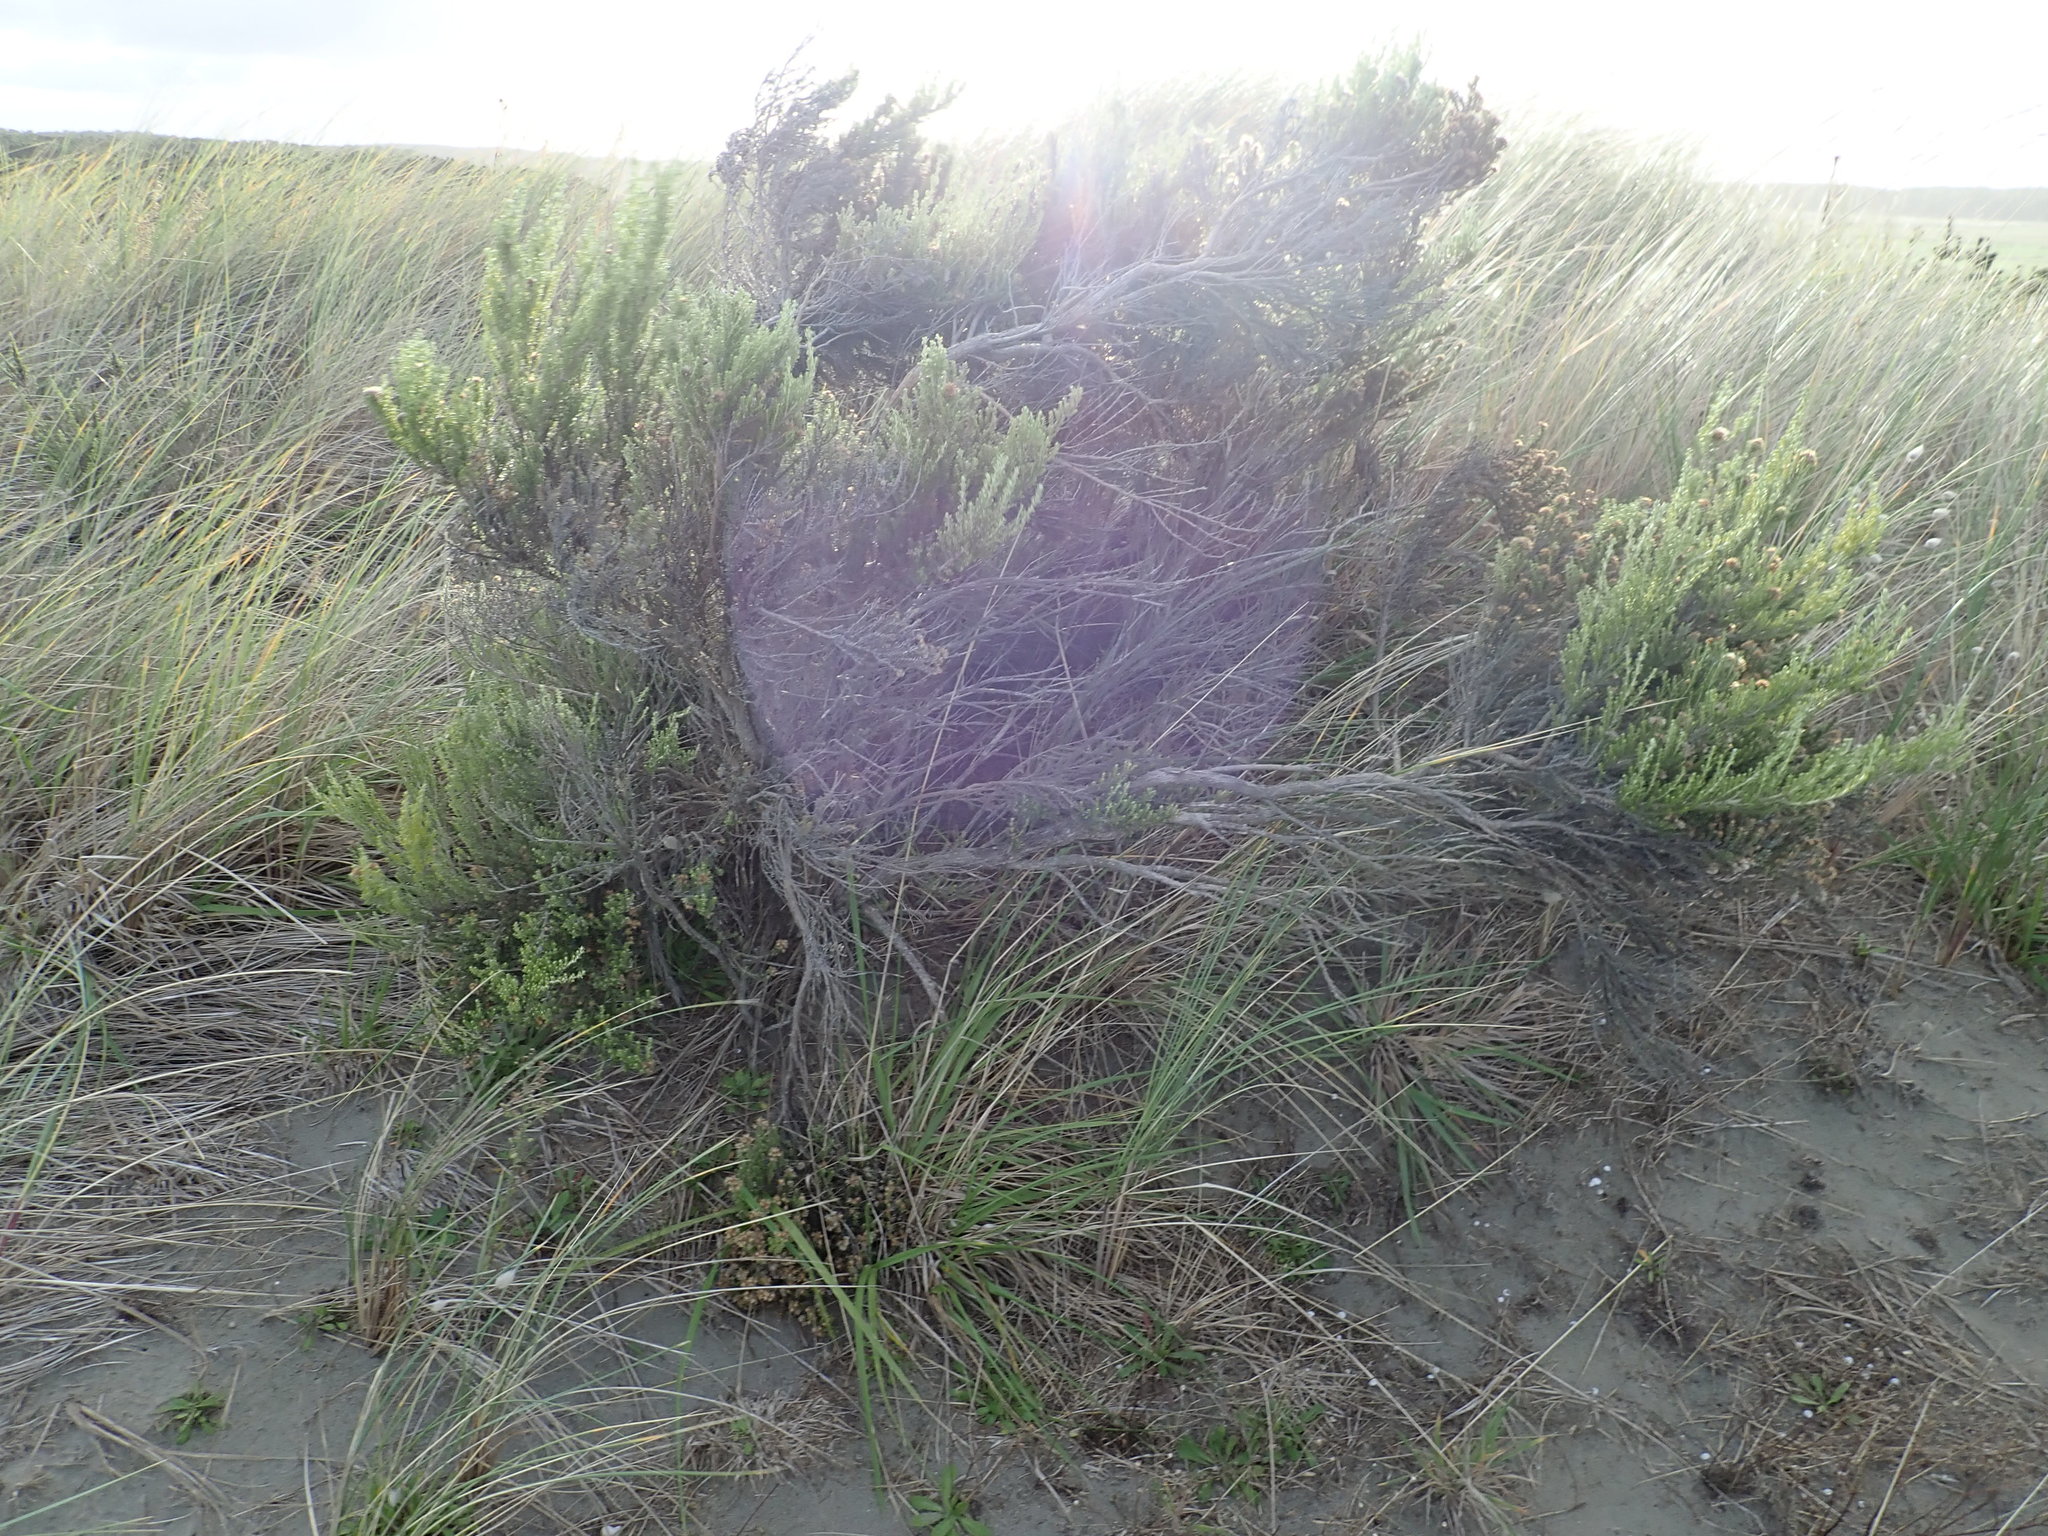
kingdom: Plantae
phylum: Tracheophyta
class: Magnoliopsida
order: Asterales
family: Asteraceae
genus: Ozothamnus
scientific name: Ozothamnus leptophyllus
